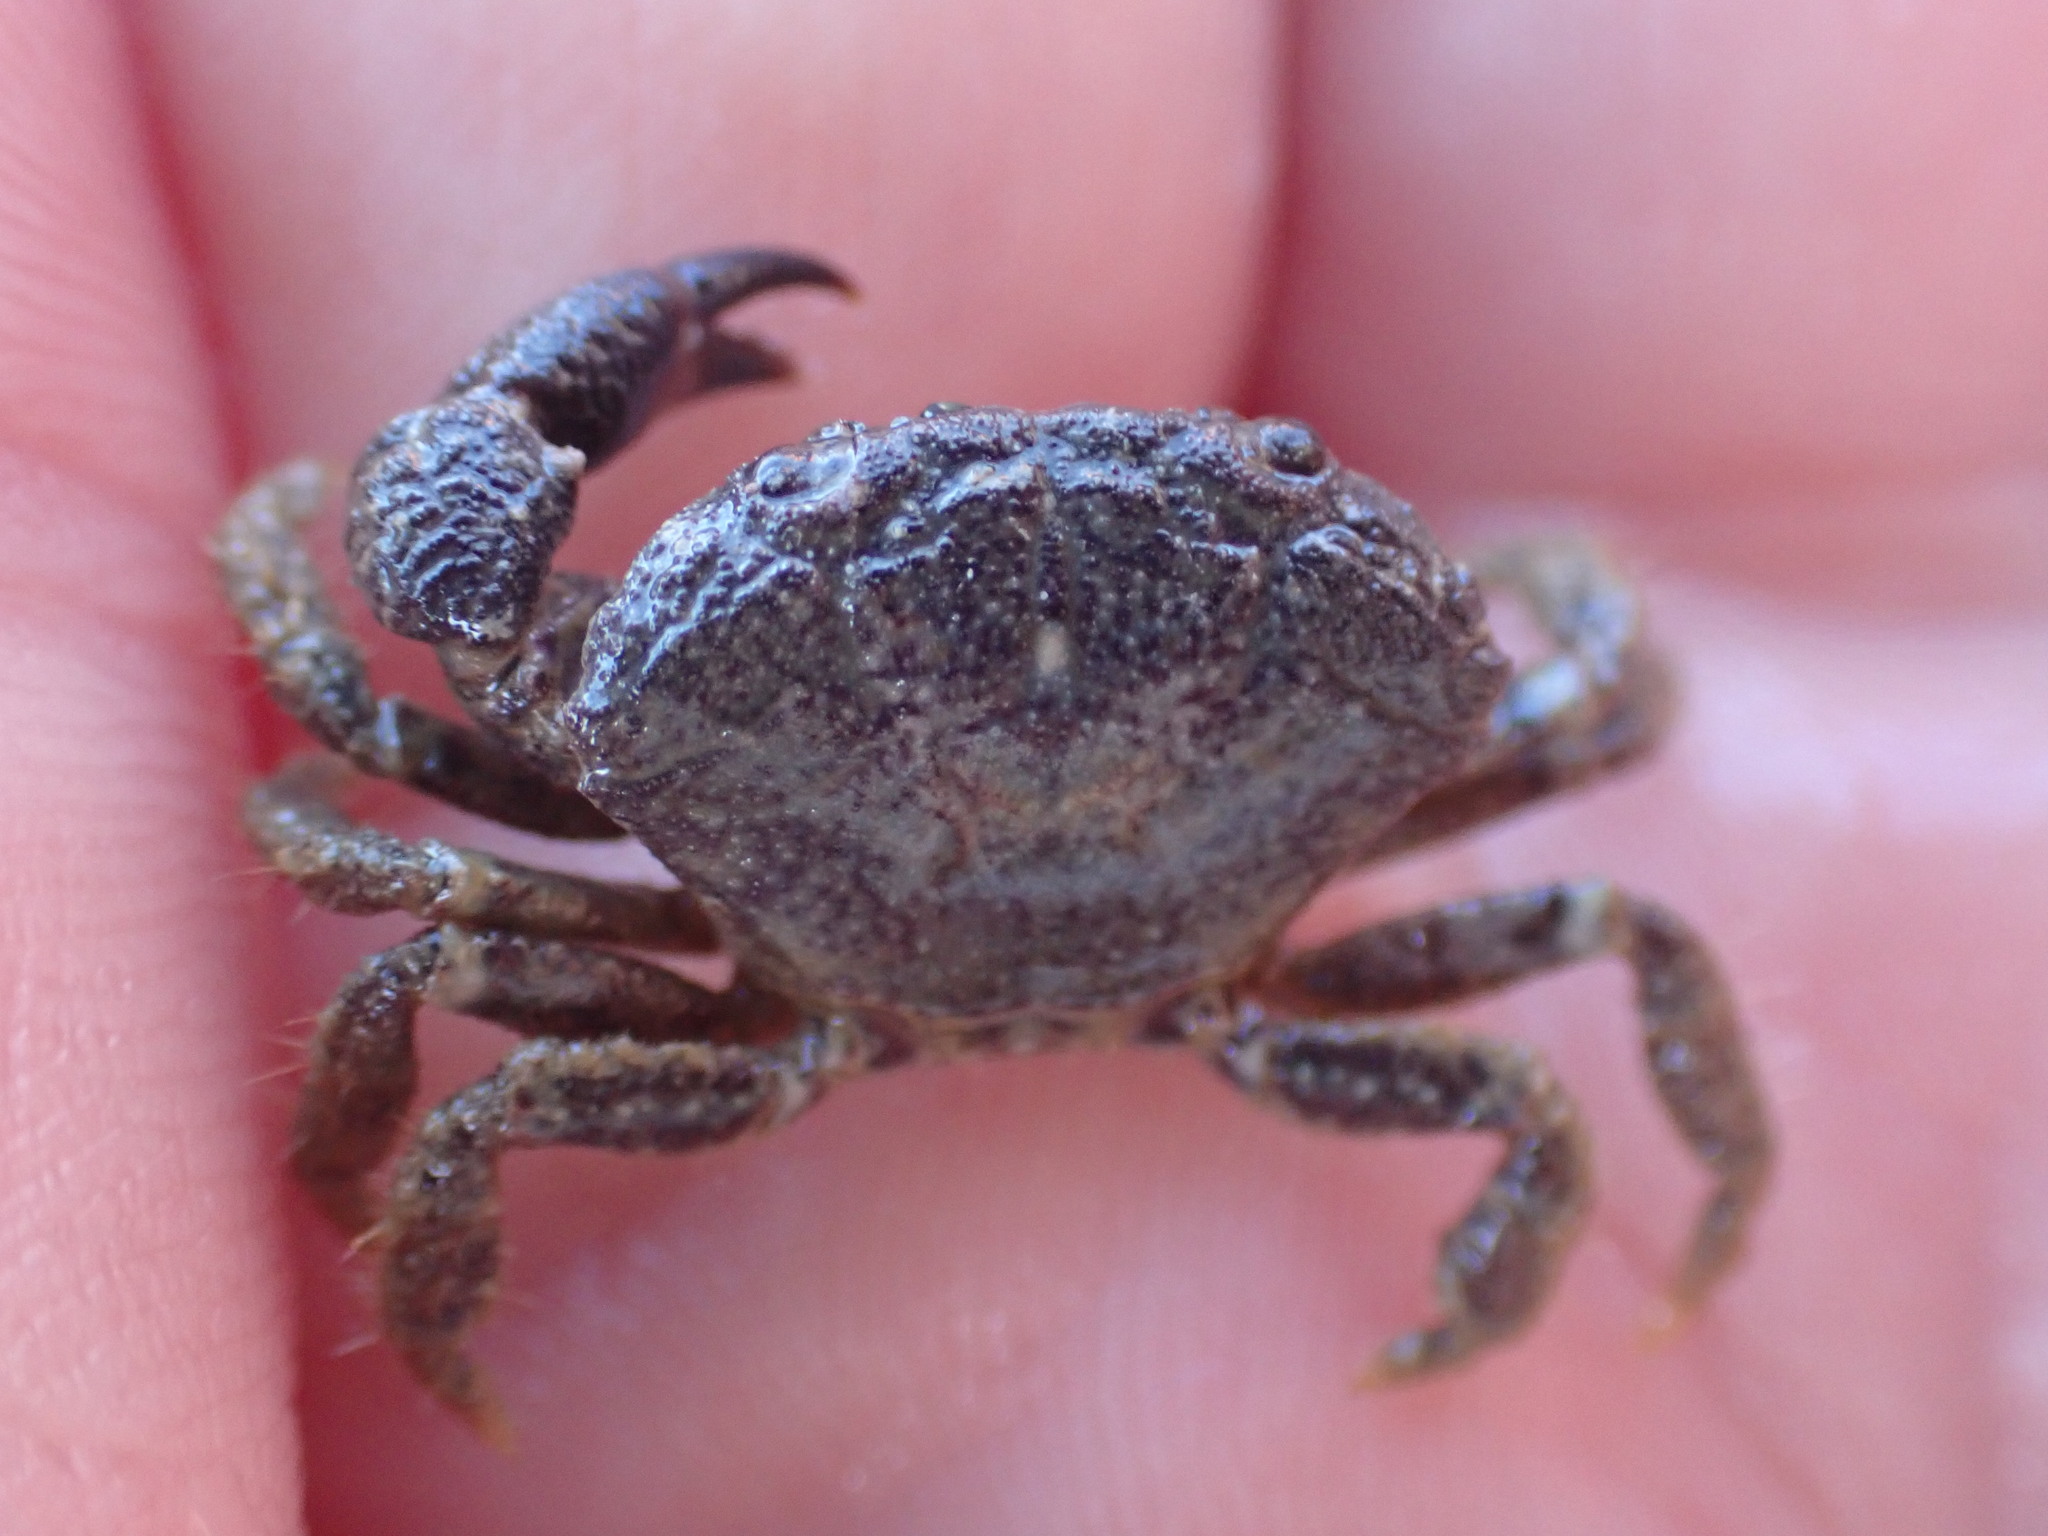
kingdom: Animalia
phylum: Arthropoda
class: Malacostraca
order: Decapoda
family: Oziidae
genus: Ozius
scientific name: Ozius deplanatus
